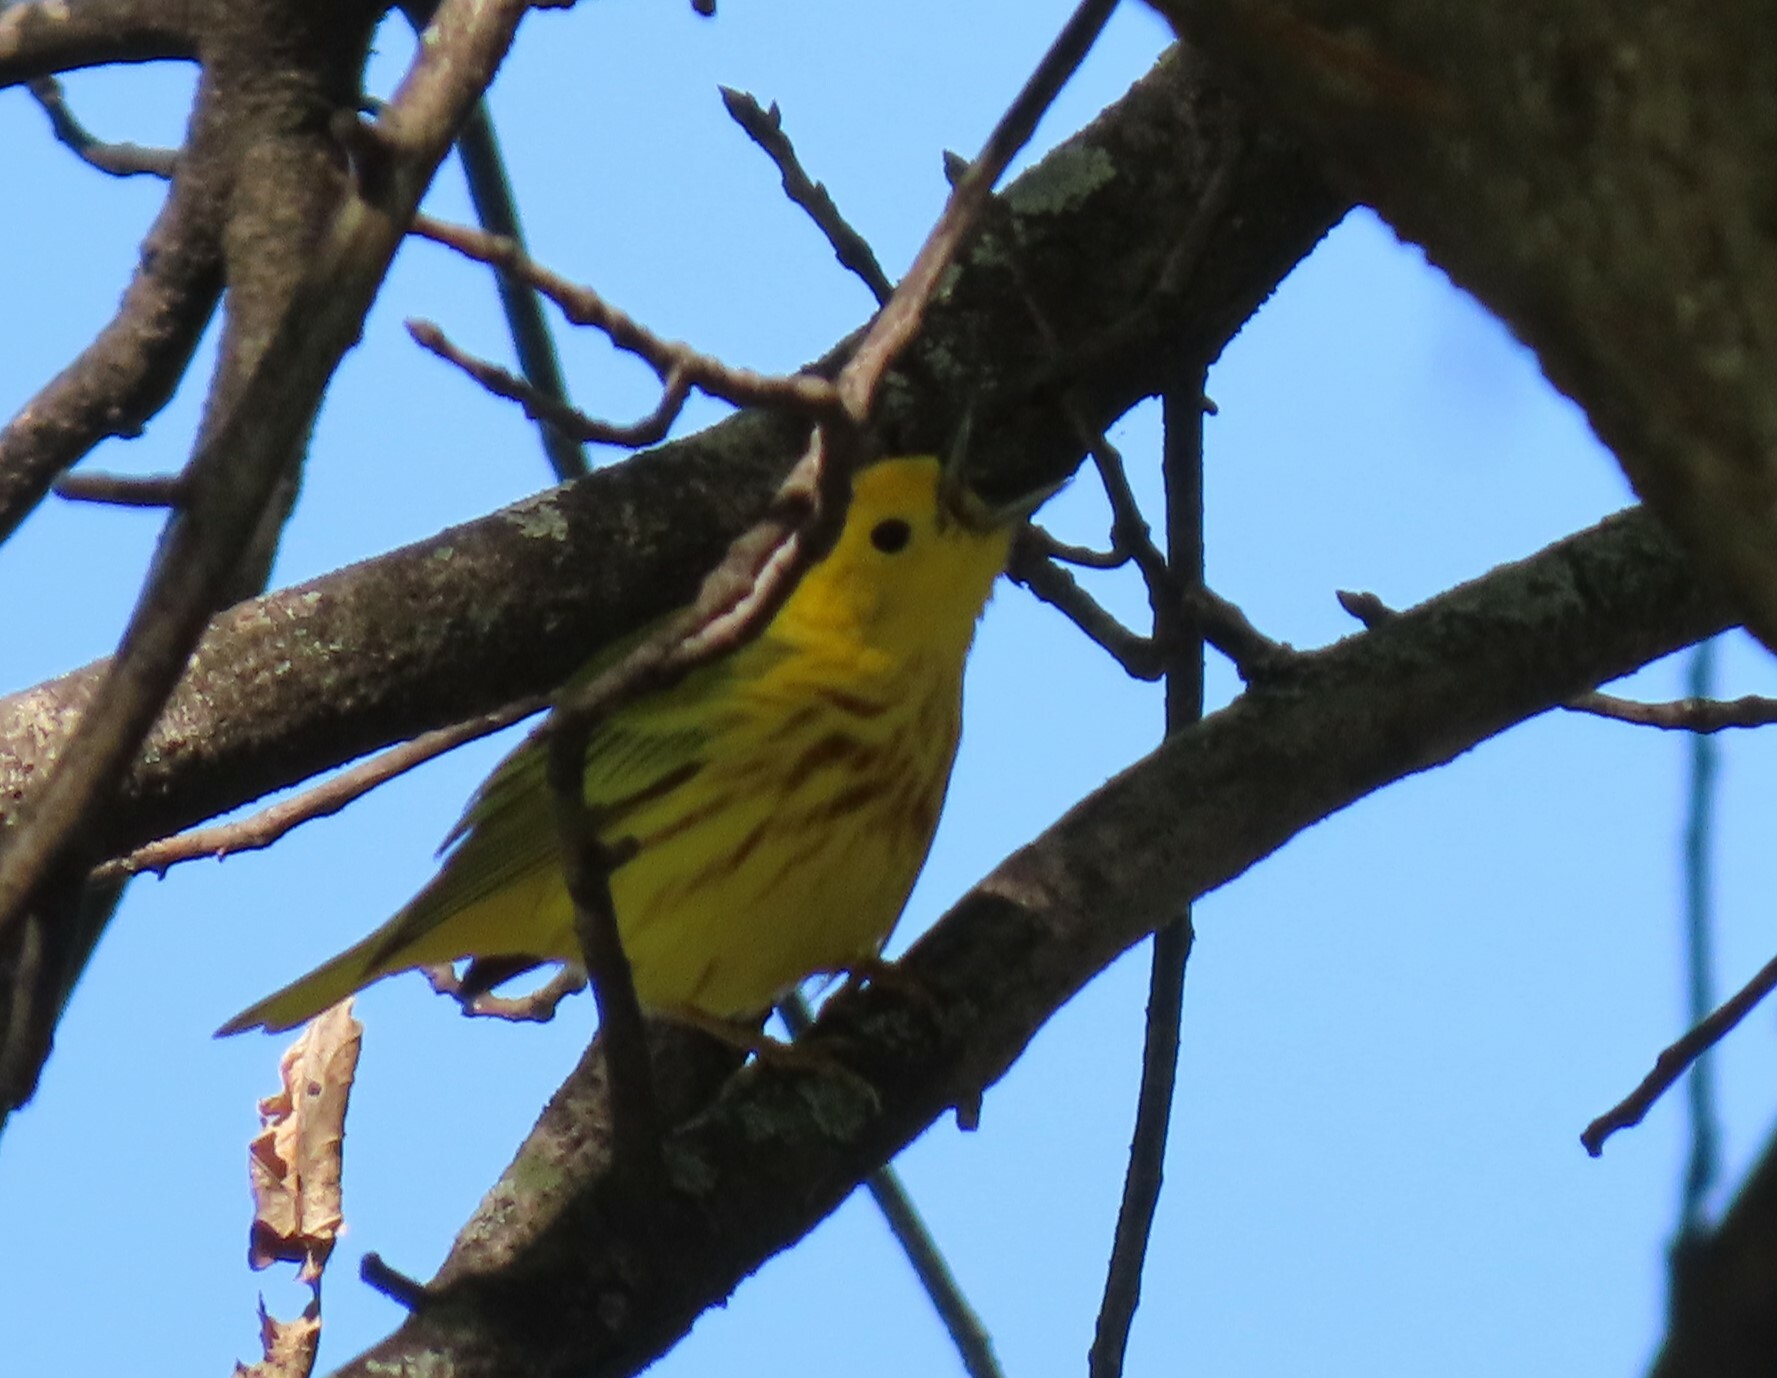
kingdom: Animalia
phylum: Chordata
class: Aves
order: Passeriformes
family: Parulidae
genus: Setophaga
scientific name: Setophaga petechia
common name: Yellow warbler
